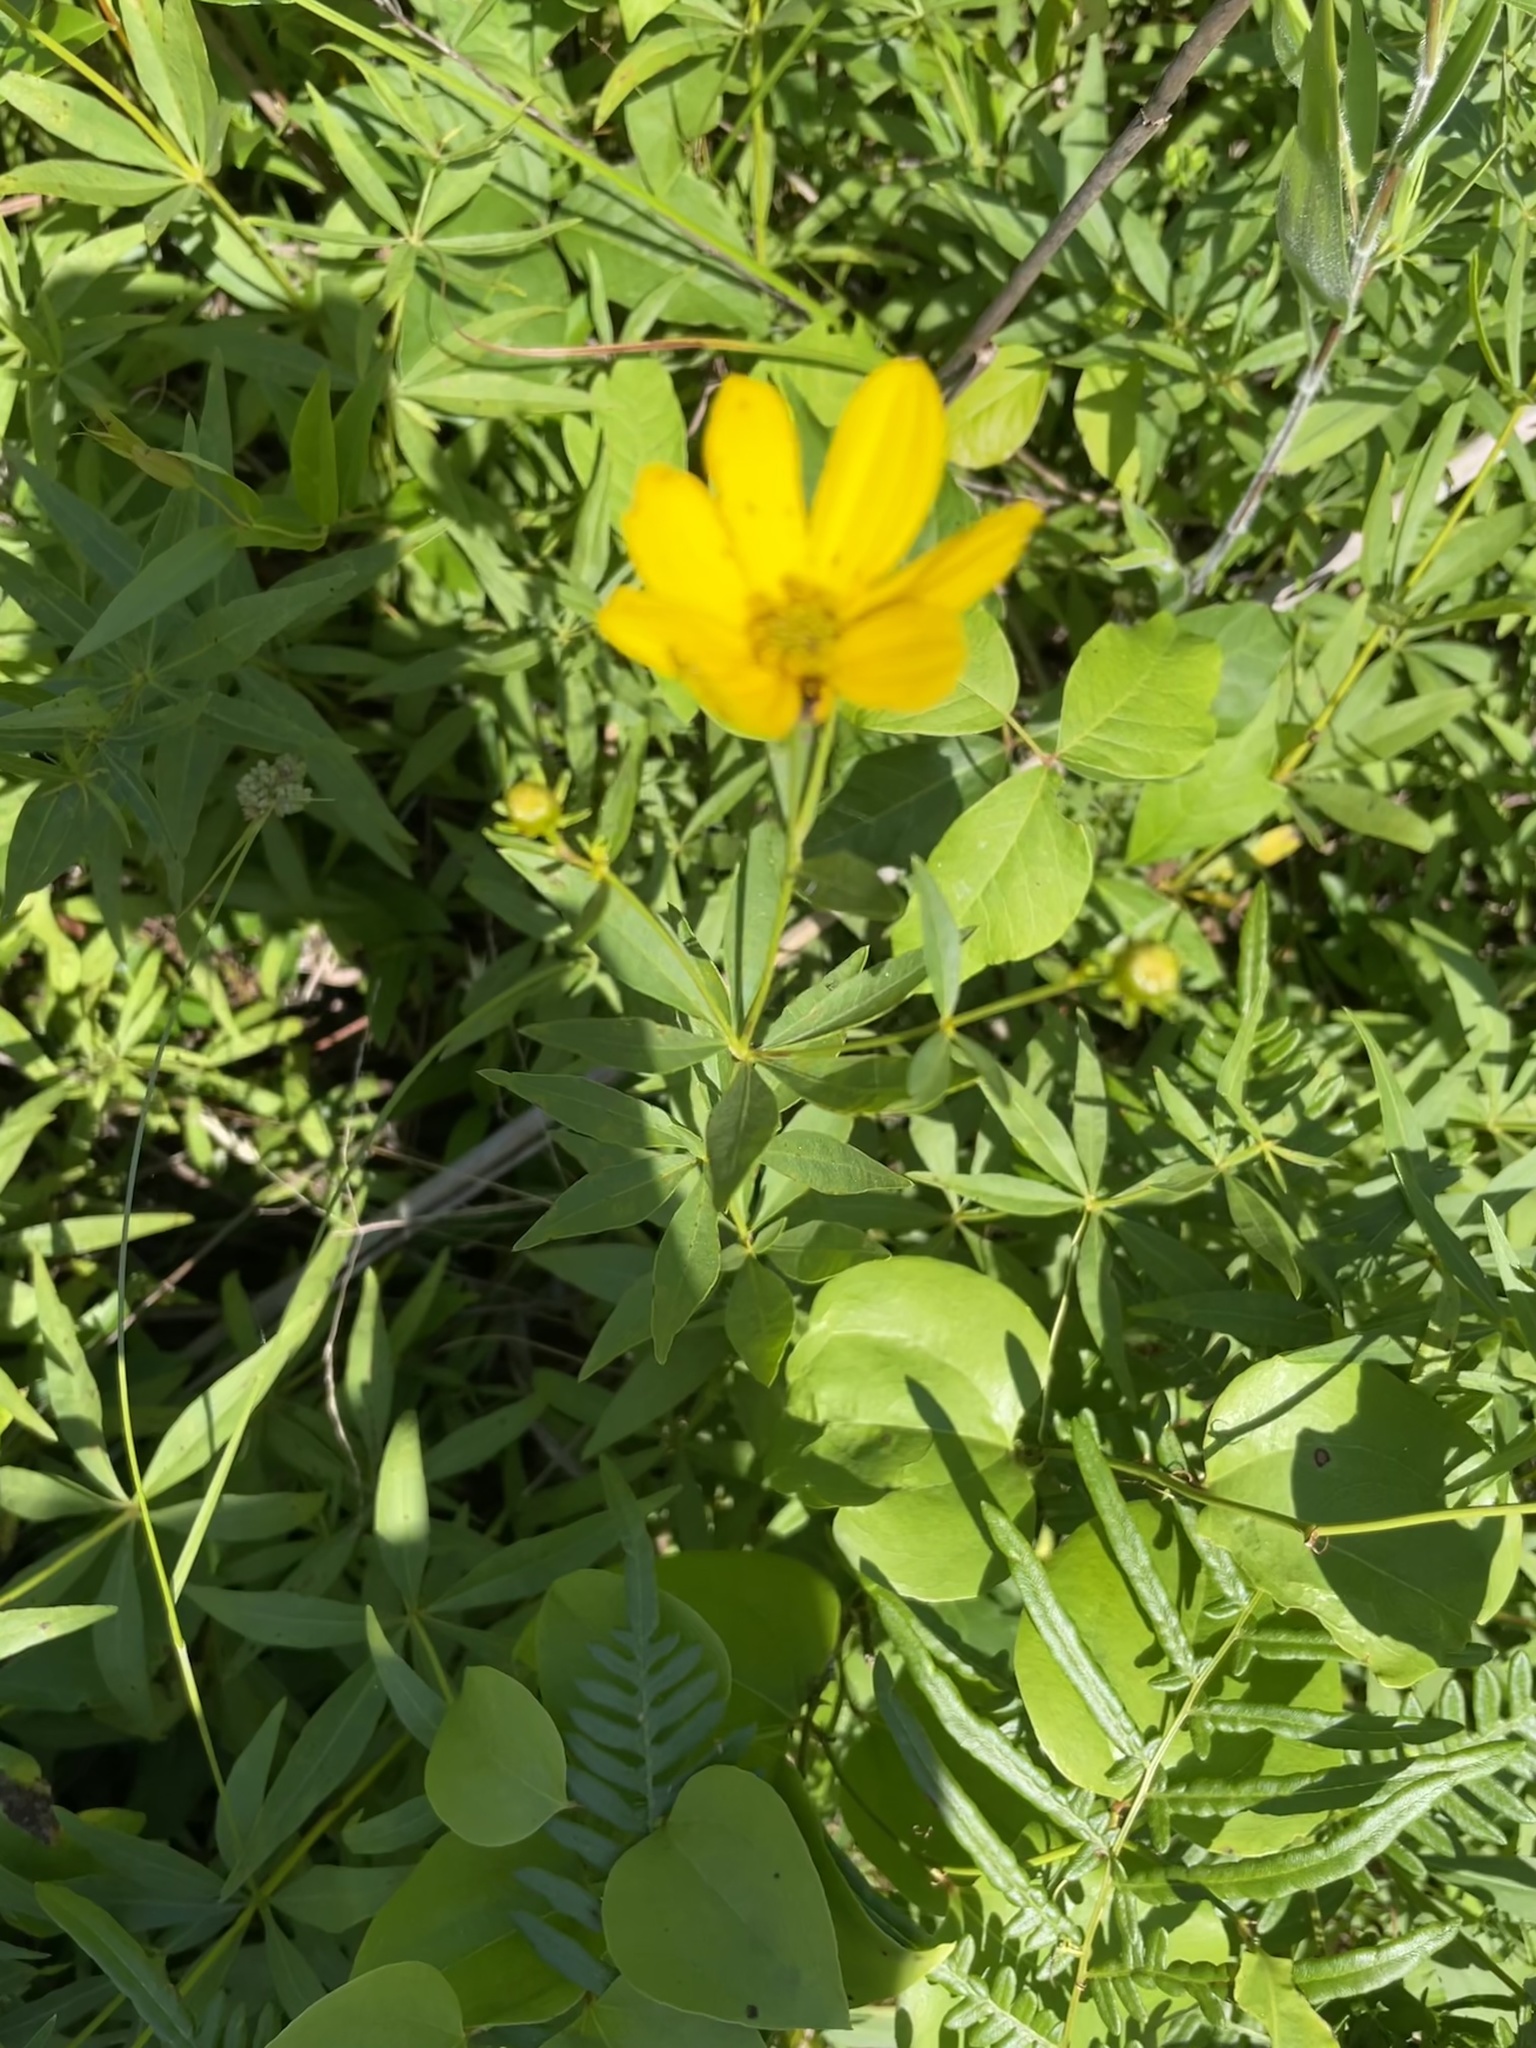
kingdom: Plantae
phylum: Tracheophyta
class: Magnoliopsida
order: Asterales
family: Asteraceae
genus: Coreopsis
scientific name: Coreopsis major
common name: Forest tickseed
